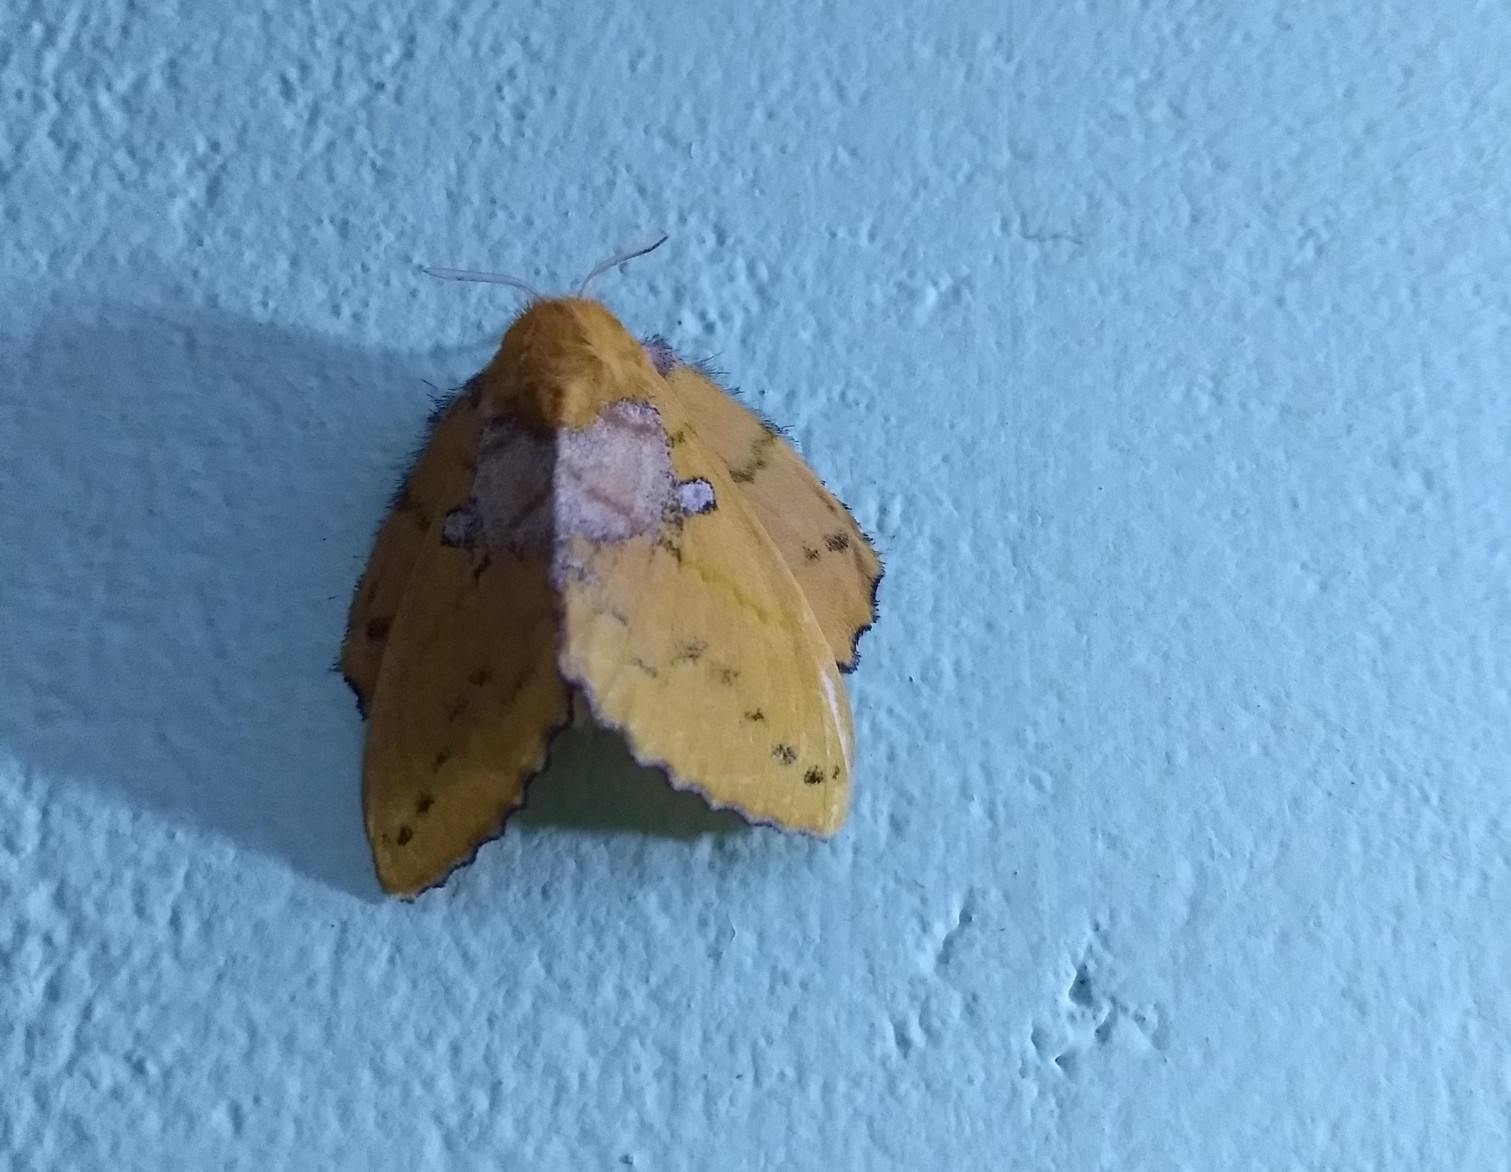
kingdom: Animalia
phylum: Arthropoda
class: Insecta
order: Lepidoptera
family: Lasiocampidae
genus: Trabala
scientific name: Trabala vishnou
